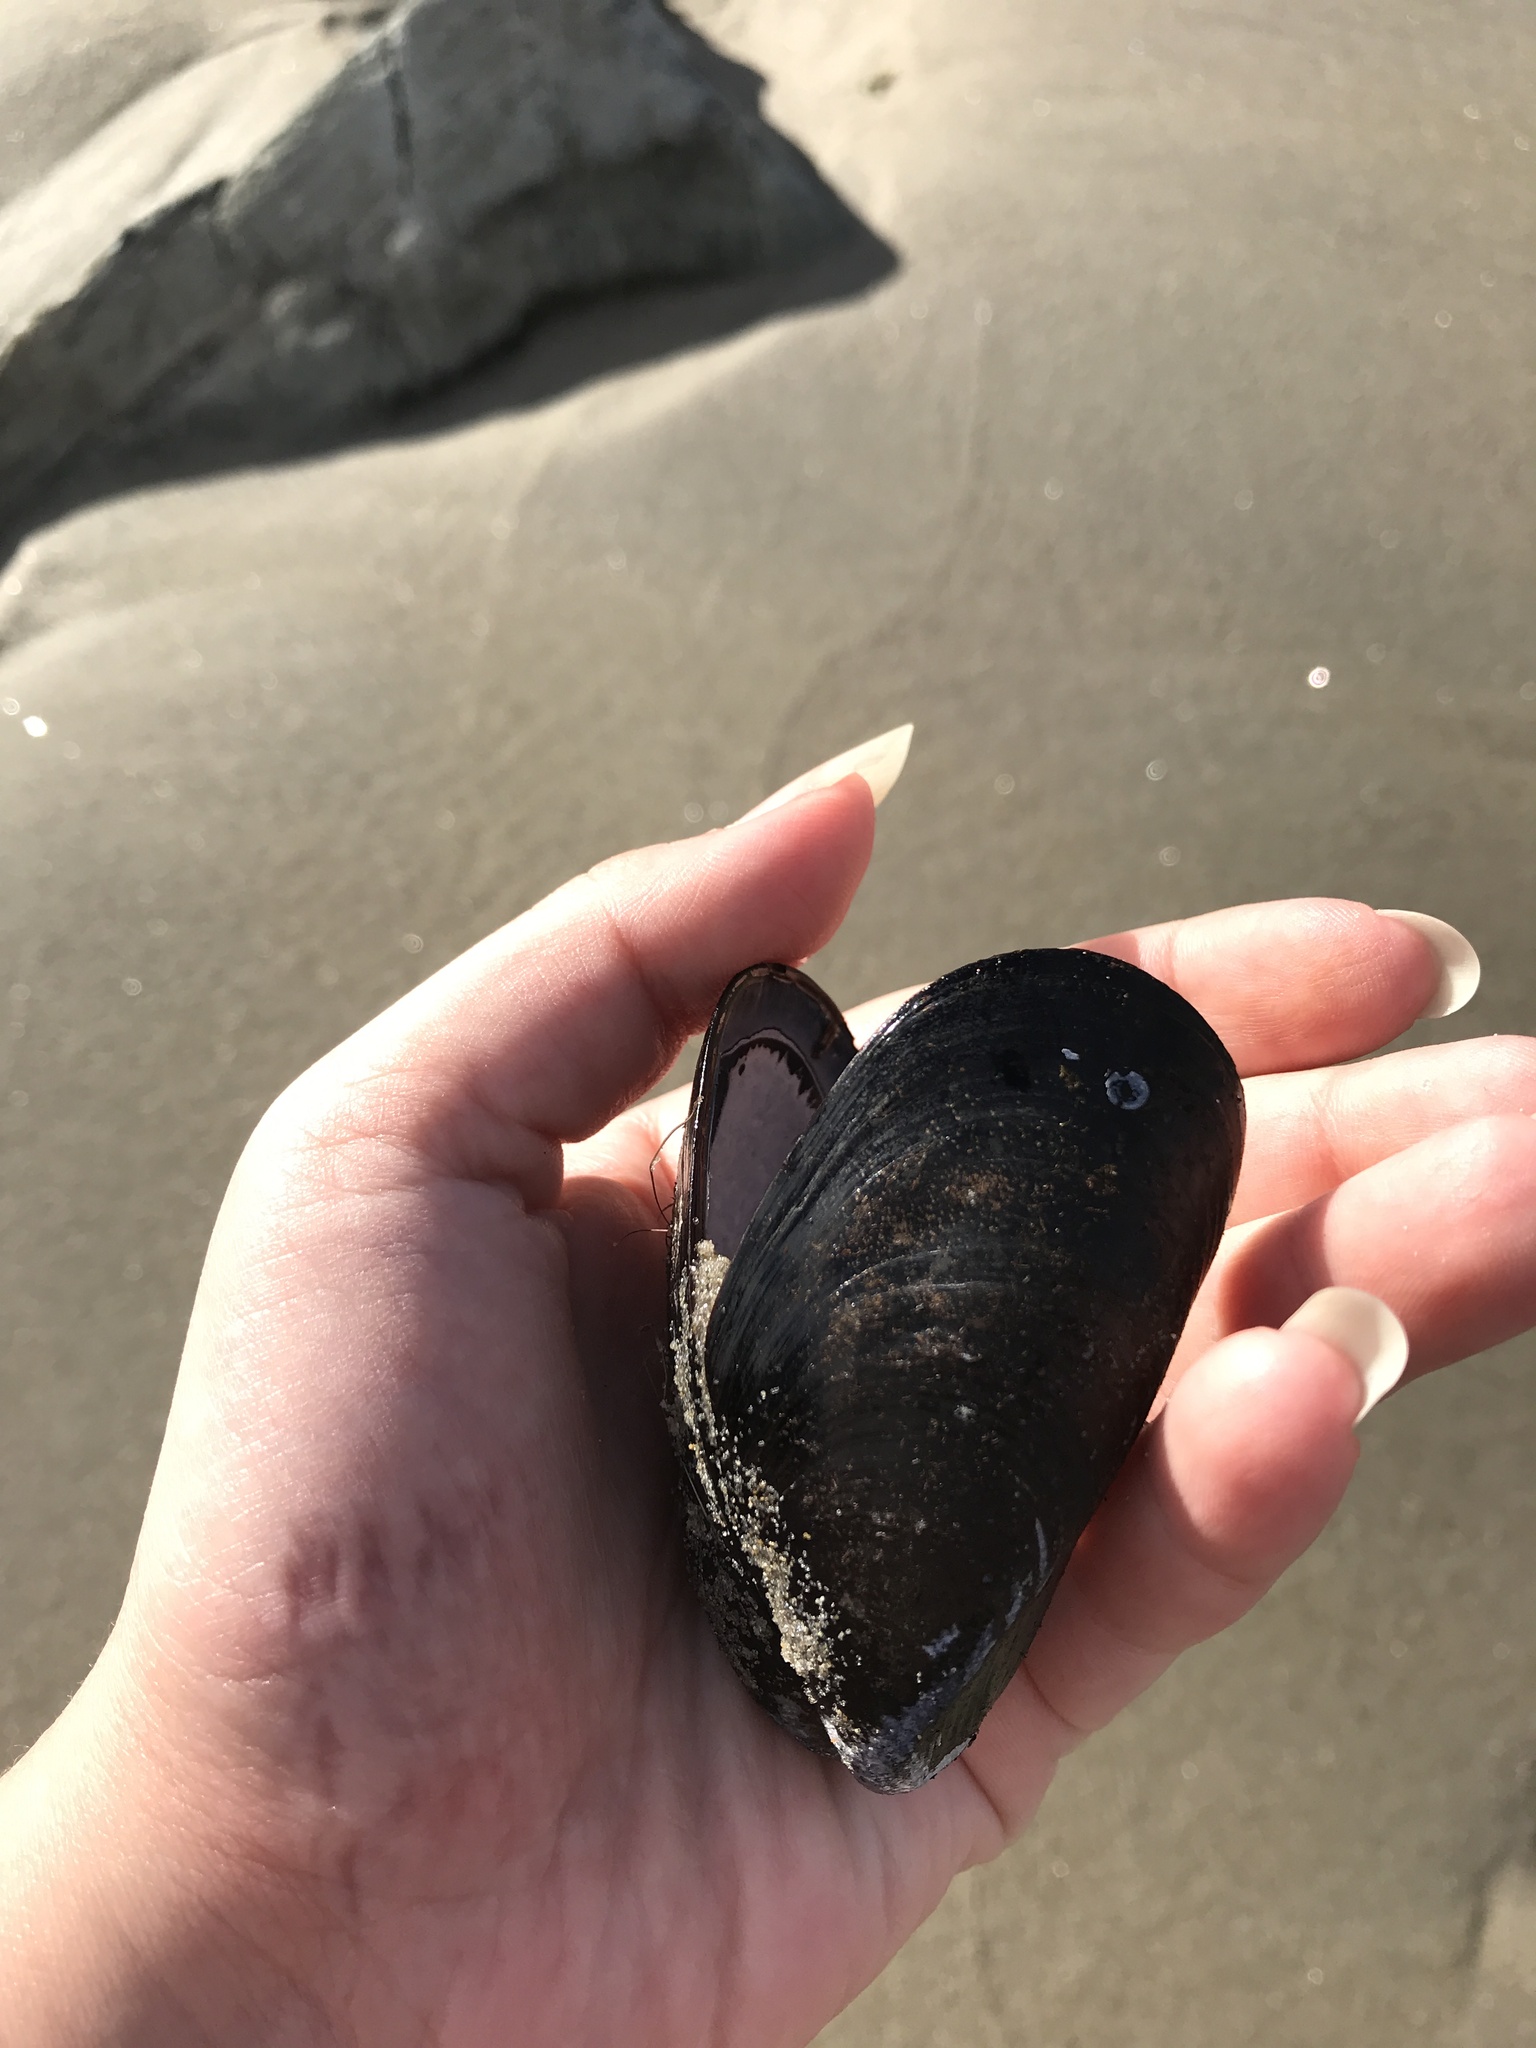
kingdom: Animalia
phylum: Mollusca
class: Bivalvia
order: Mytilida
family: Mytilidae
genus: Mytilus
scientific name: Mytilus edulis
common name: Blue mussel
